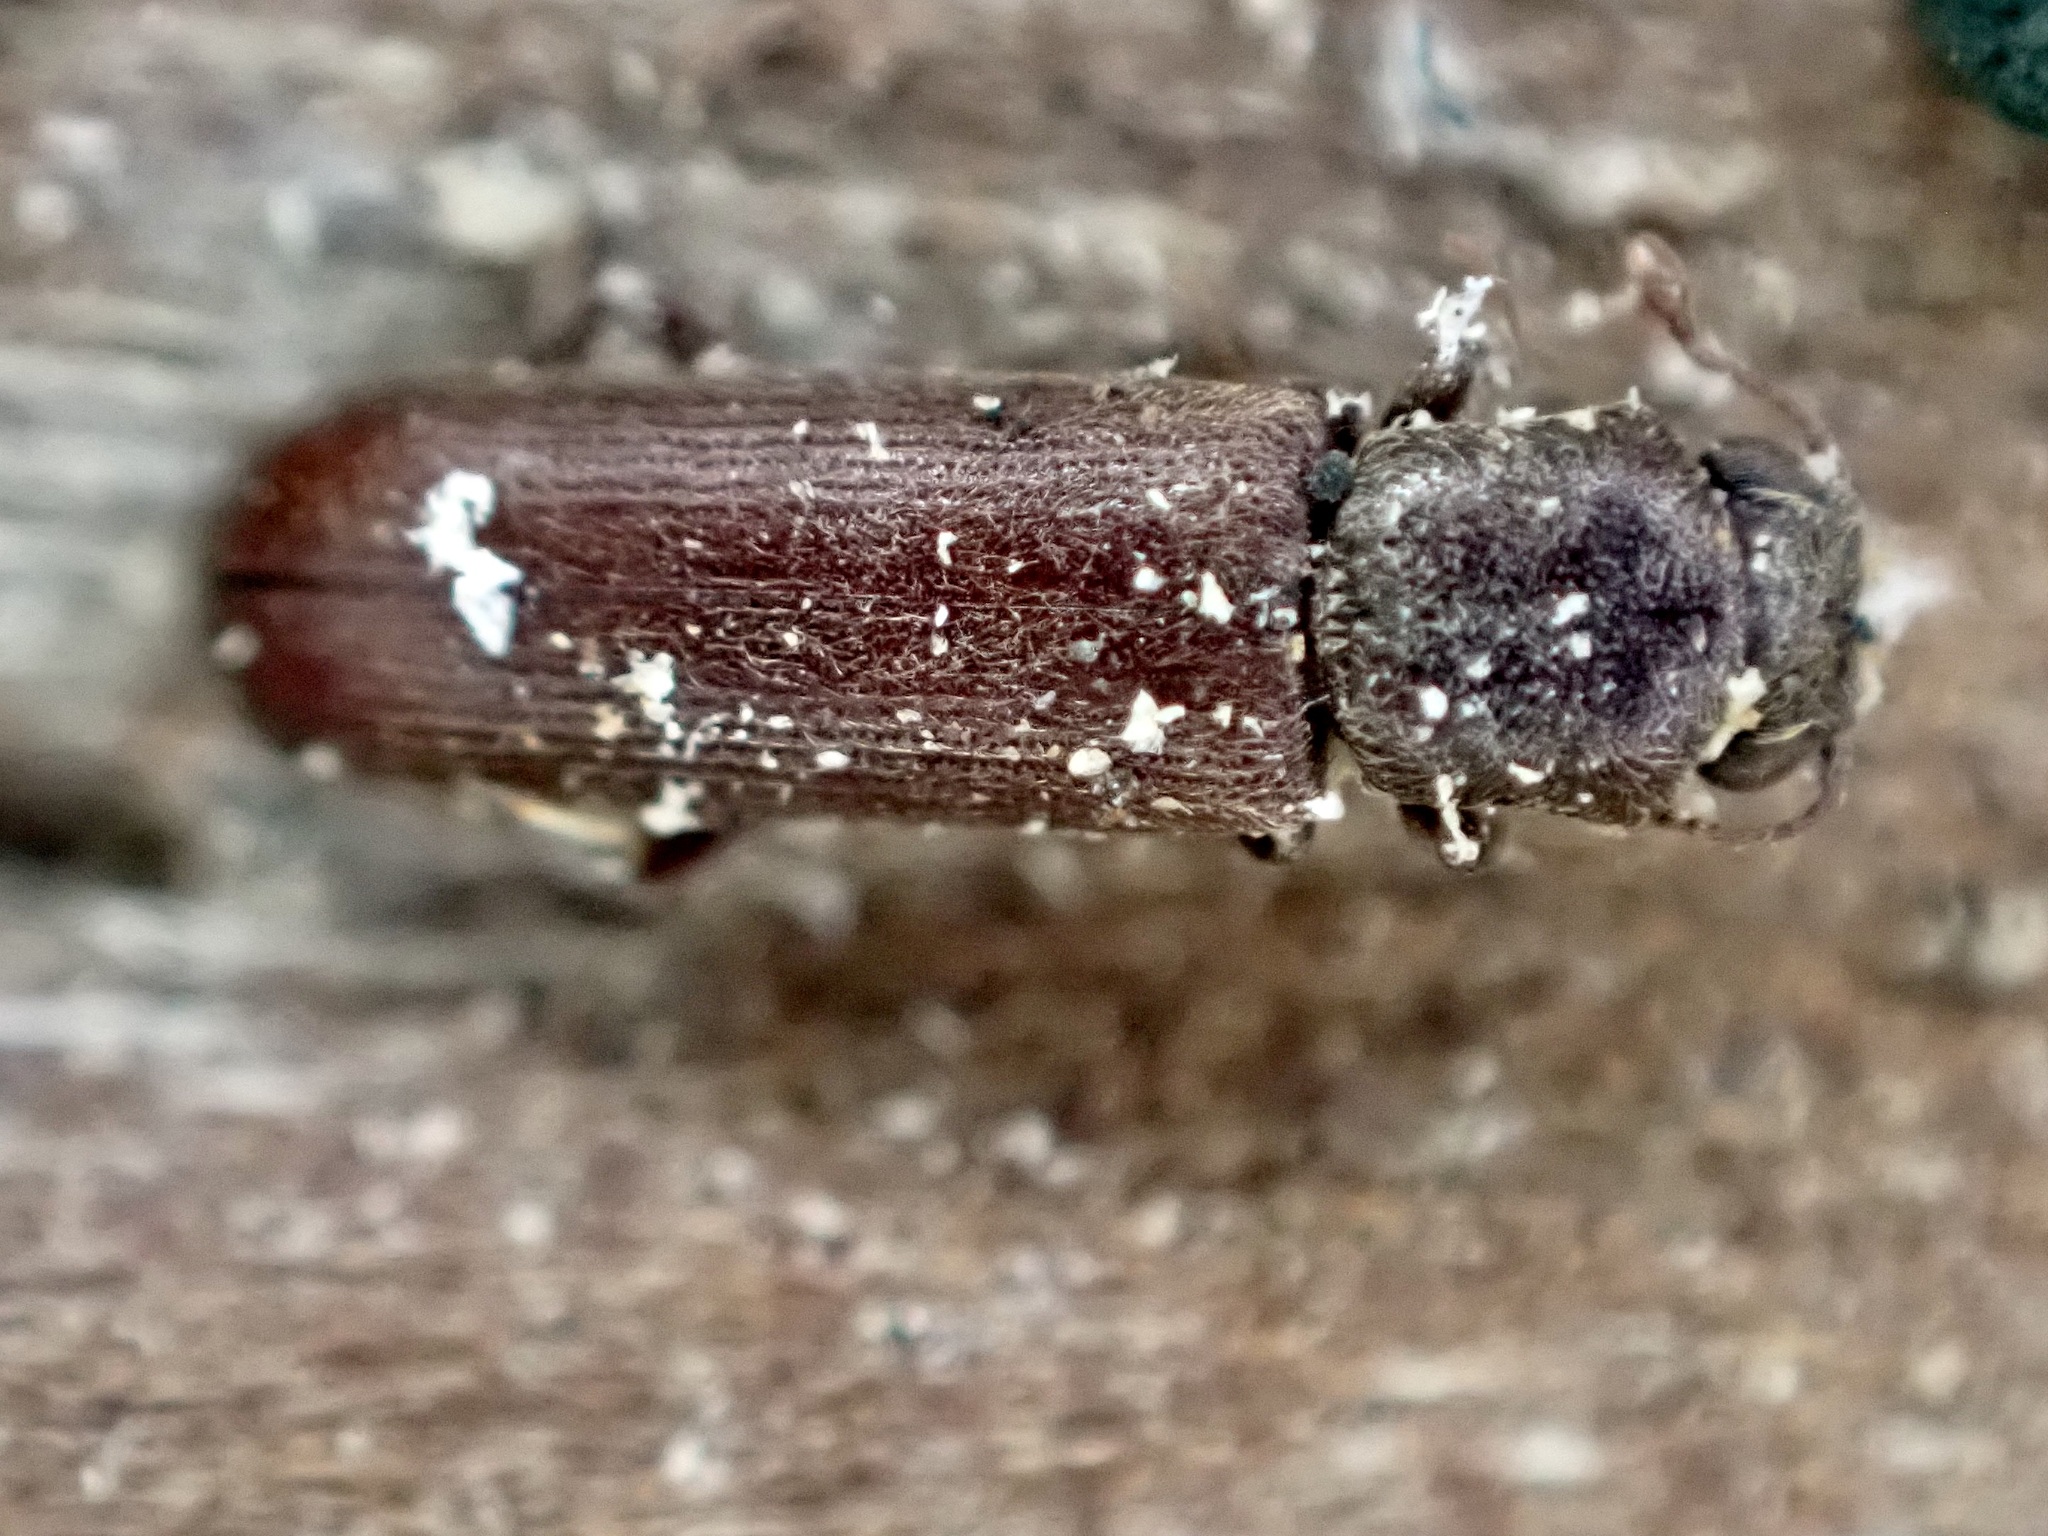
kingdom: Animalia
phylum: Arthropoda
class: Insecta
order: Coleoptera
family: Bostrichidae
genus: Lyctus
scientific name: Lyctus brunneus
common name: Brown powderpost beetle
